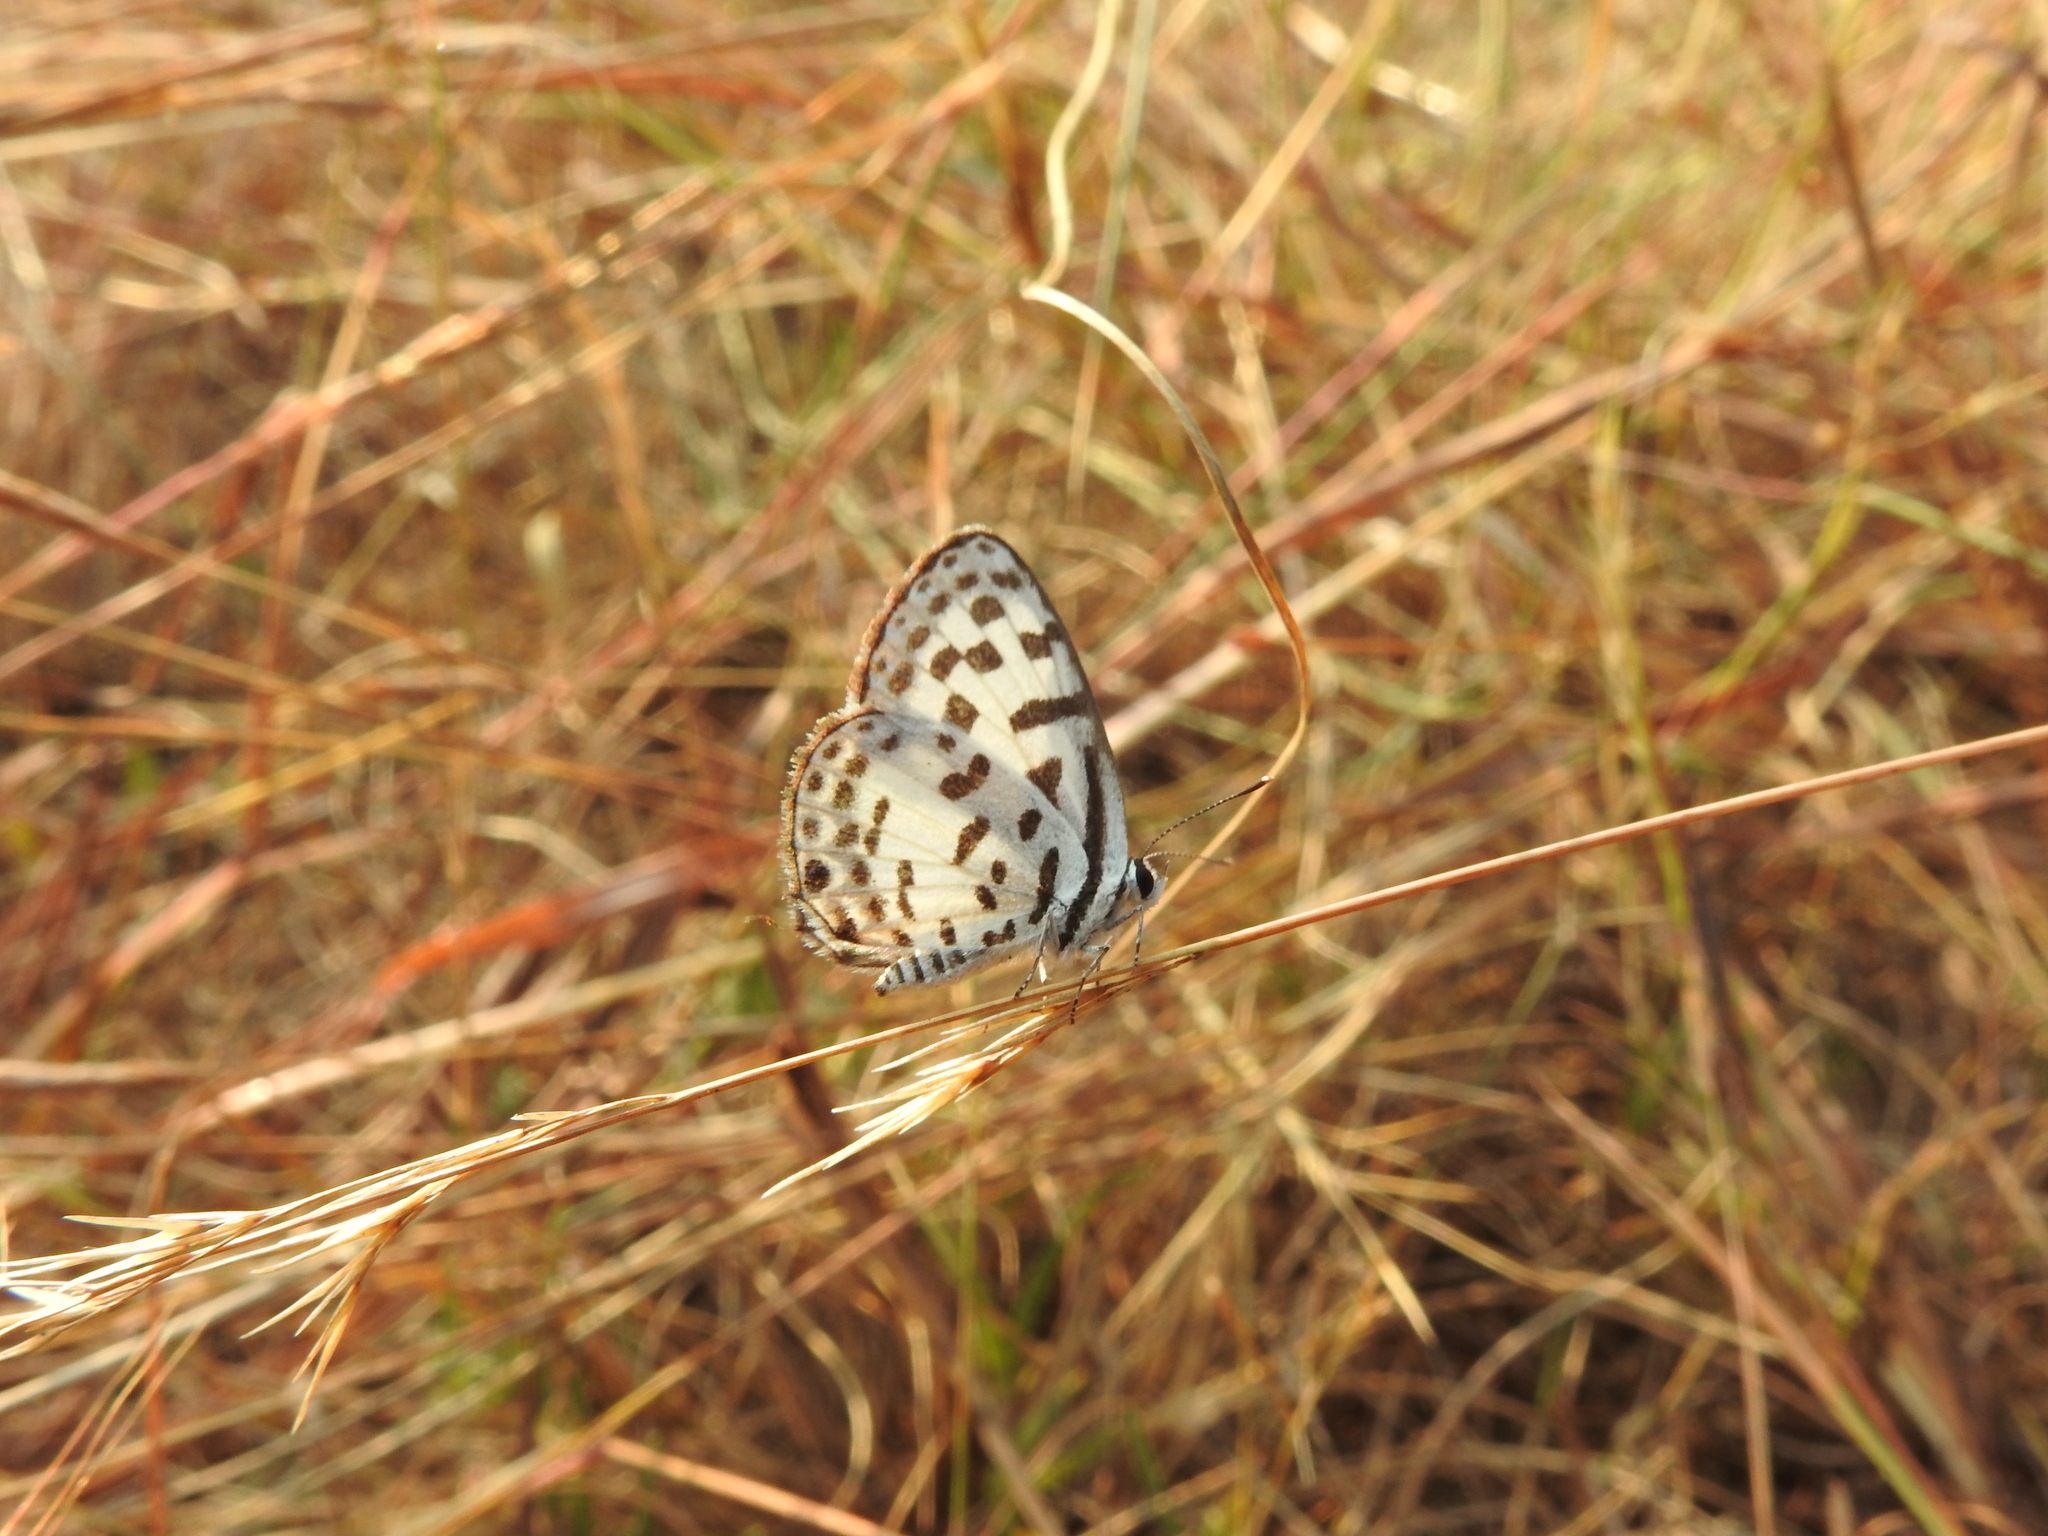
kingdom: Animalia
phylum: Arthropoda
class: Insecta
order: Lepidoptera
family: Lycaenidae
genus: Castalius
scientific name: Castalius rosimon
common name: Common pierrot
